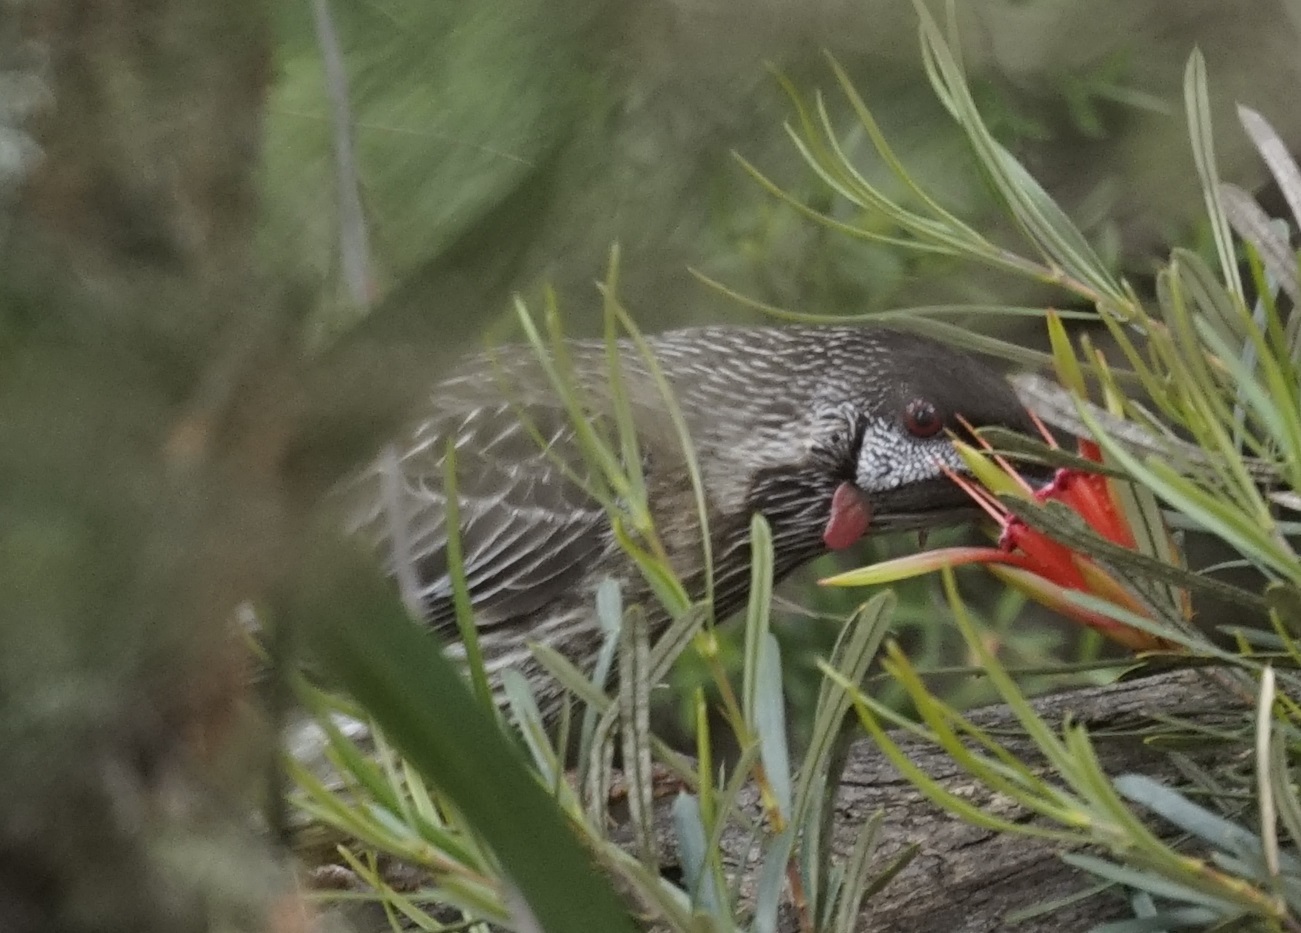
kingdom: Animalia
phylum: Chordata
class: Aves
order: Passeriformes
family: Meliphagidae
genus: Anthochaera
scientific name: Anthochaera carunculata
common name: Red wattlebird
